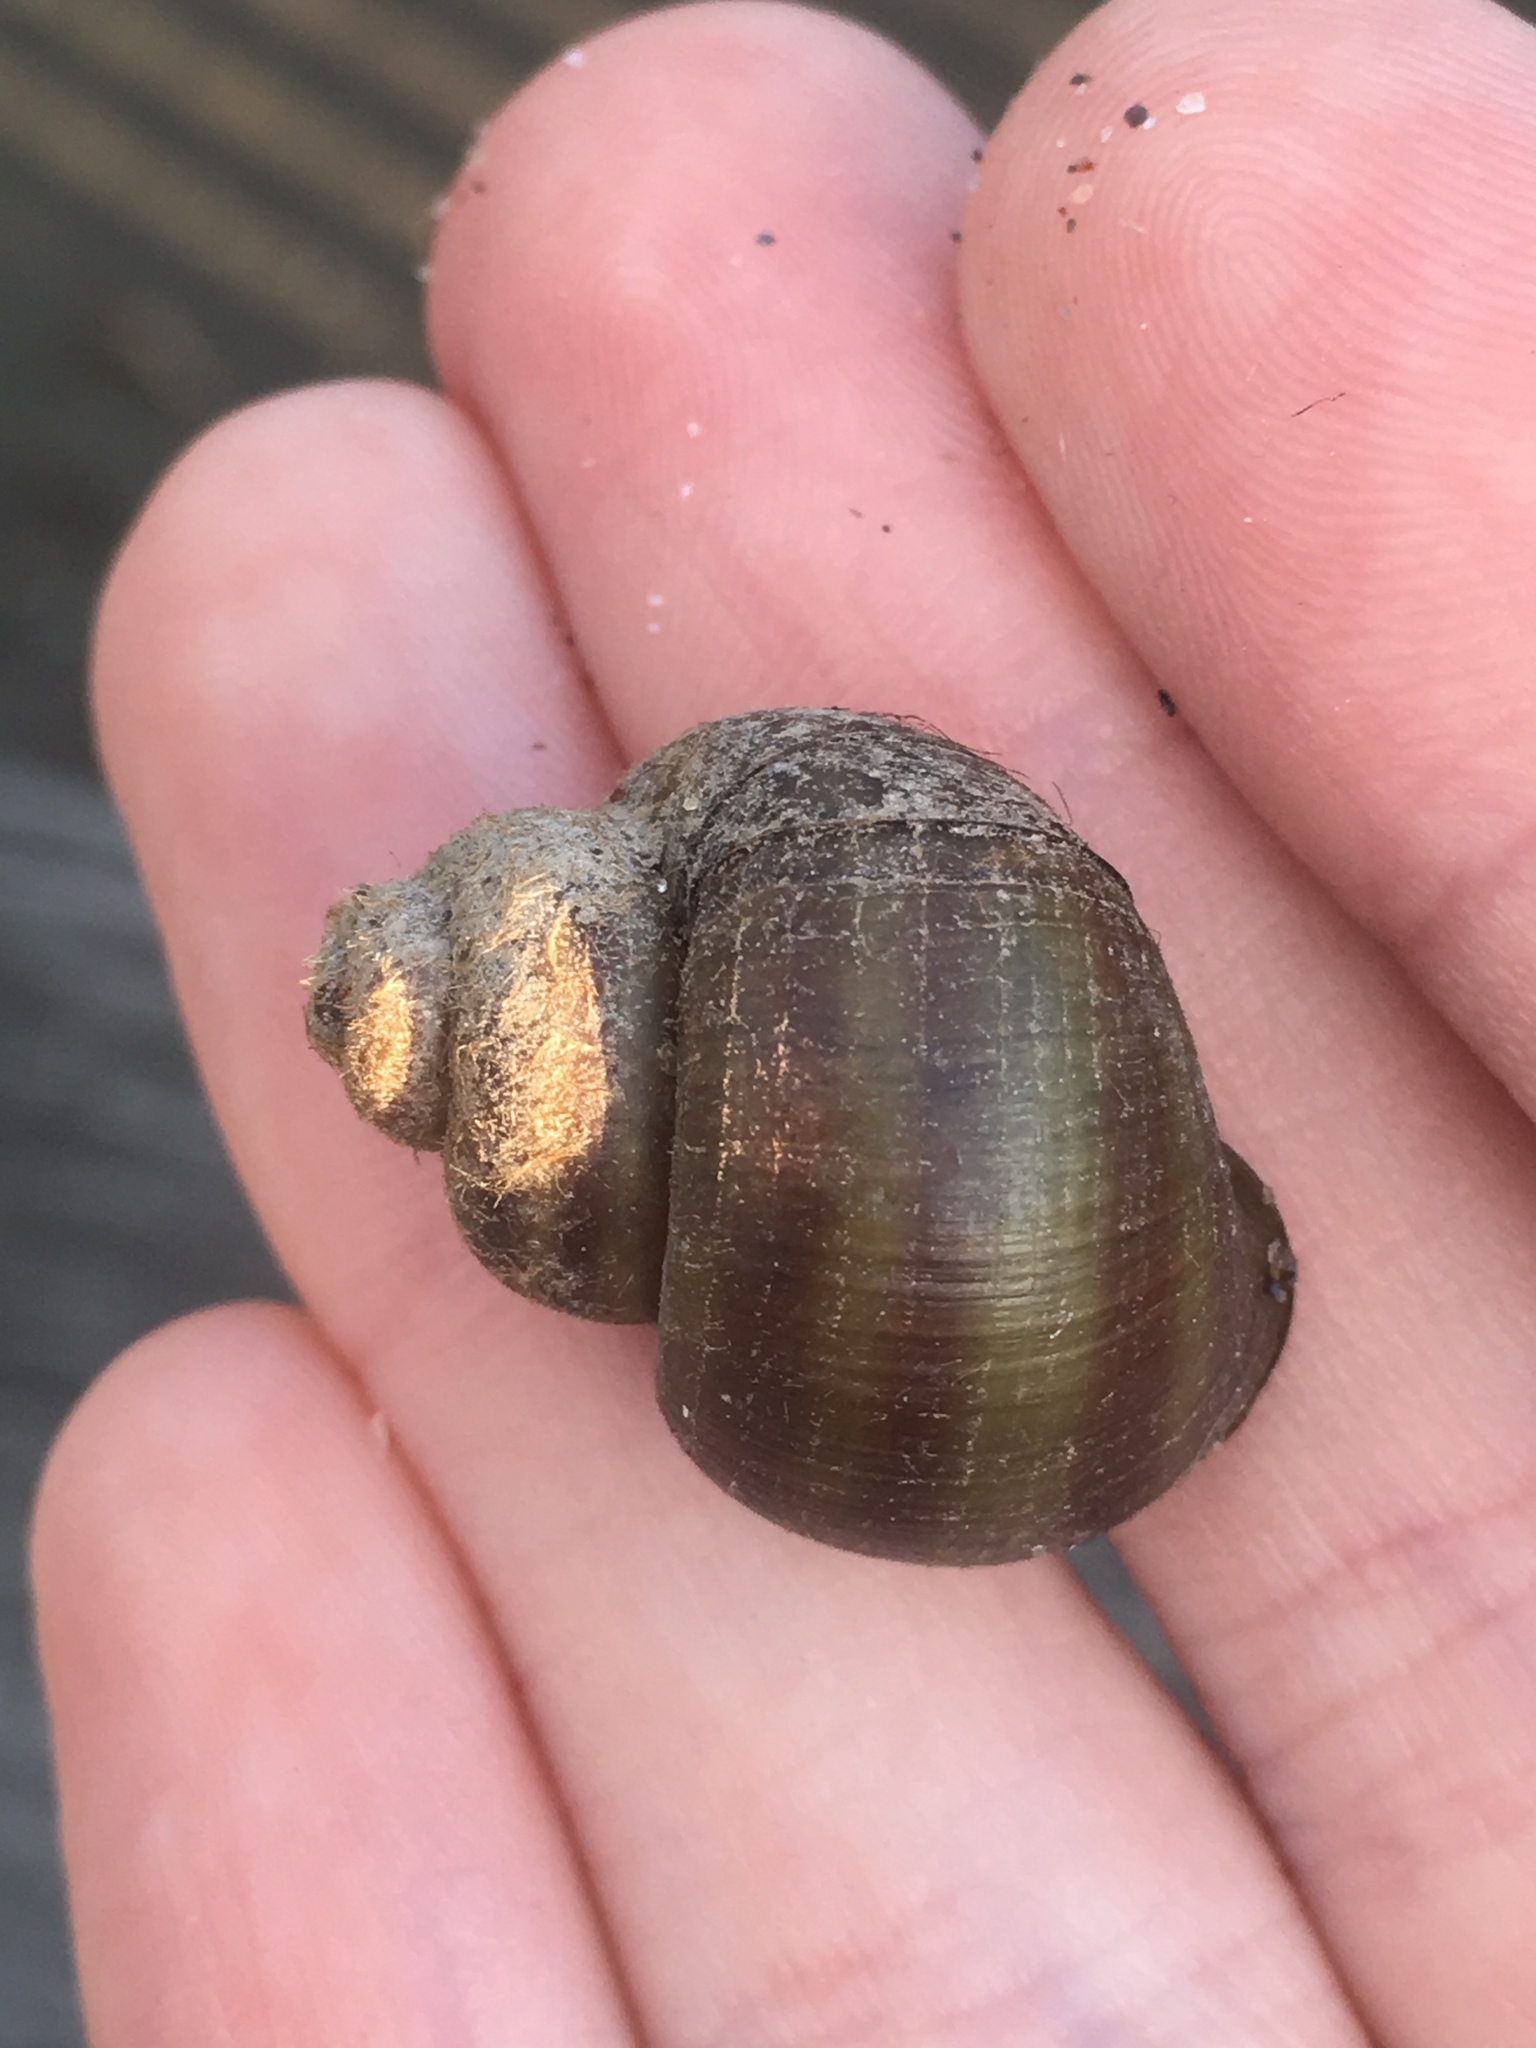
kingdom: Animalia
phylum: Mollusca
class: Gastropoda
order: Architaenioglossa
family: Viviparidae
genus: Callinina
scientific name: Callinina georgiana
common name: Banded mystery snail
